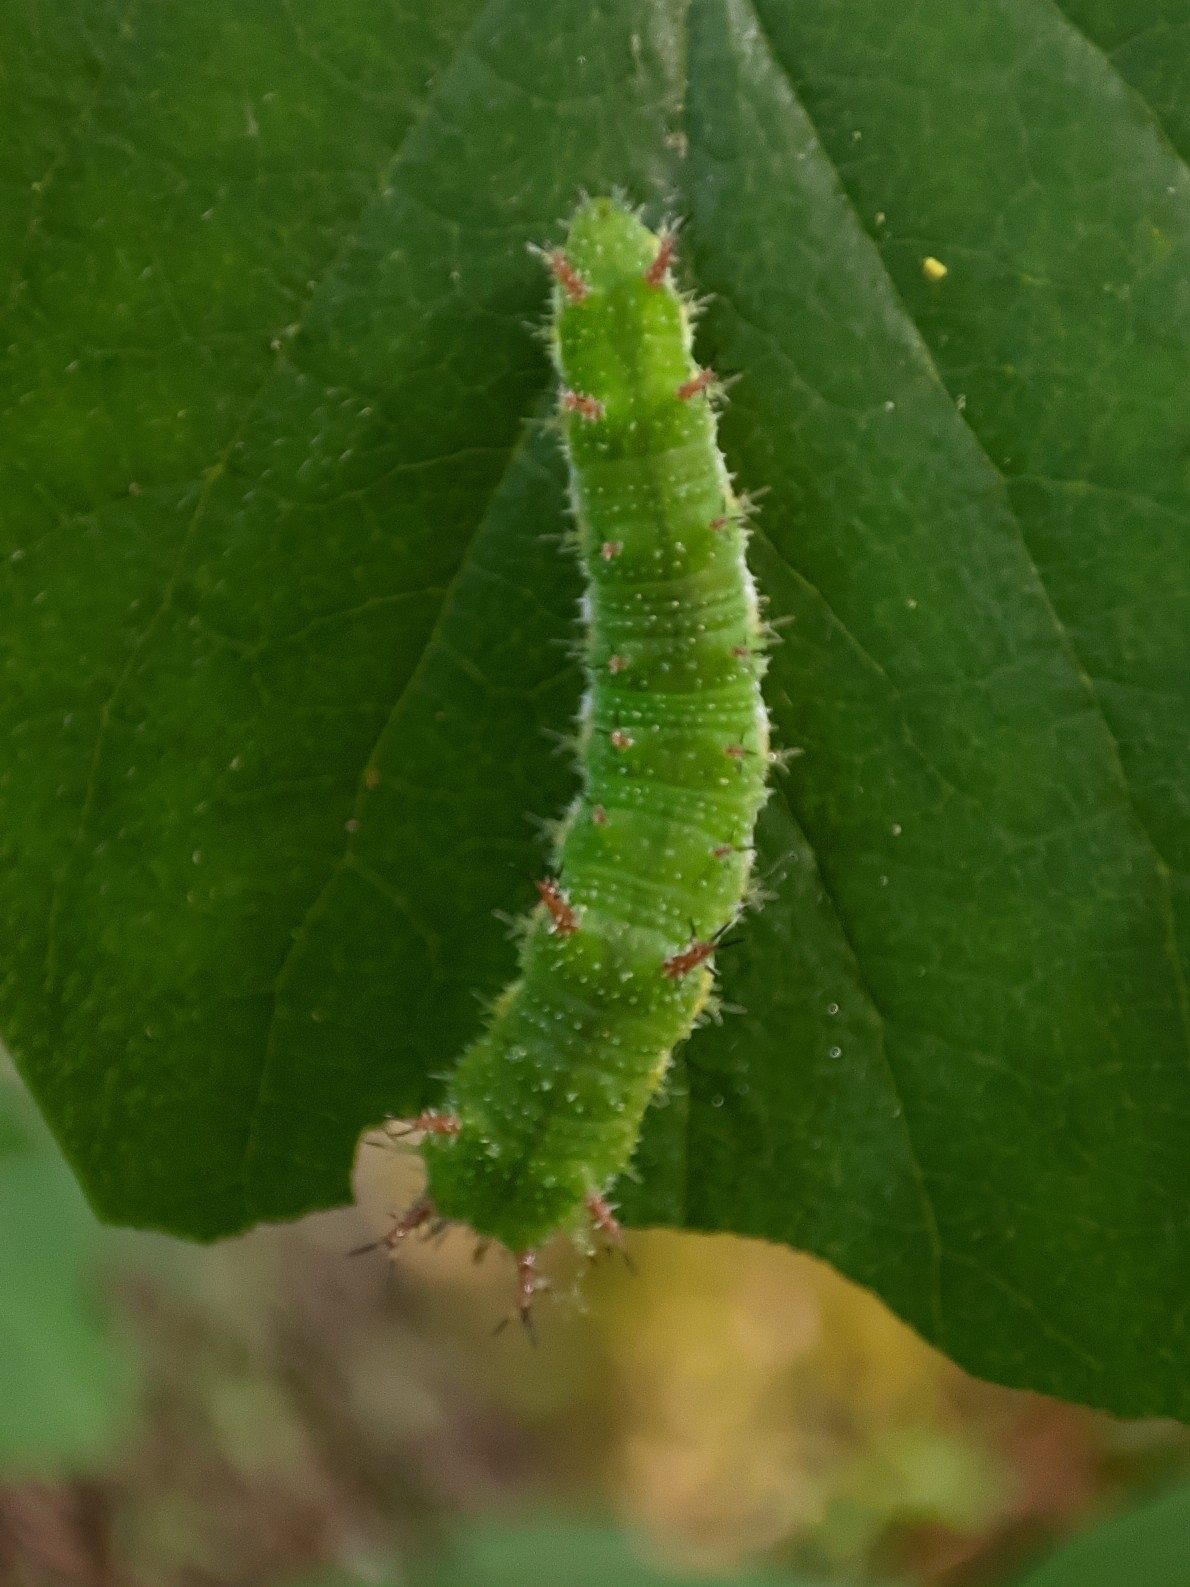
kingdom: Animalia
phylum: Arthropoda
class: Insecta
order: Lepidoptera
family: Nymphalidae
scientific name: Nymphalidae
